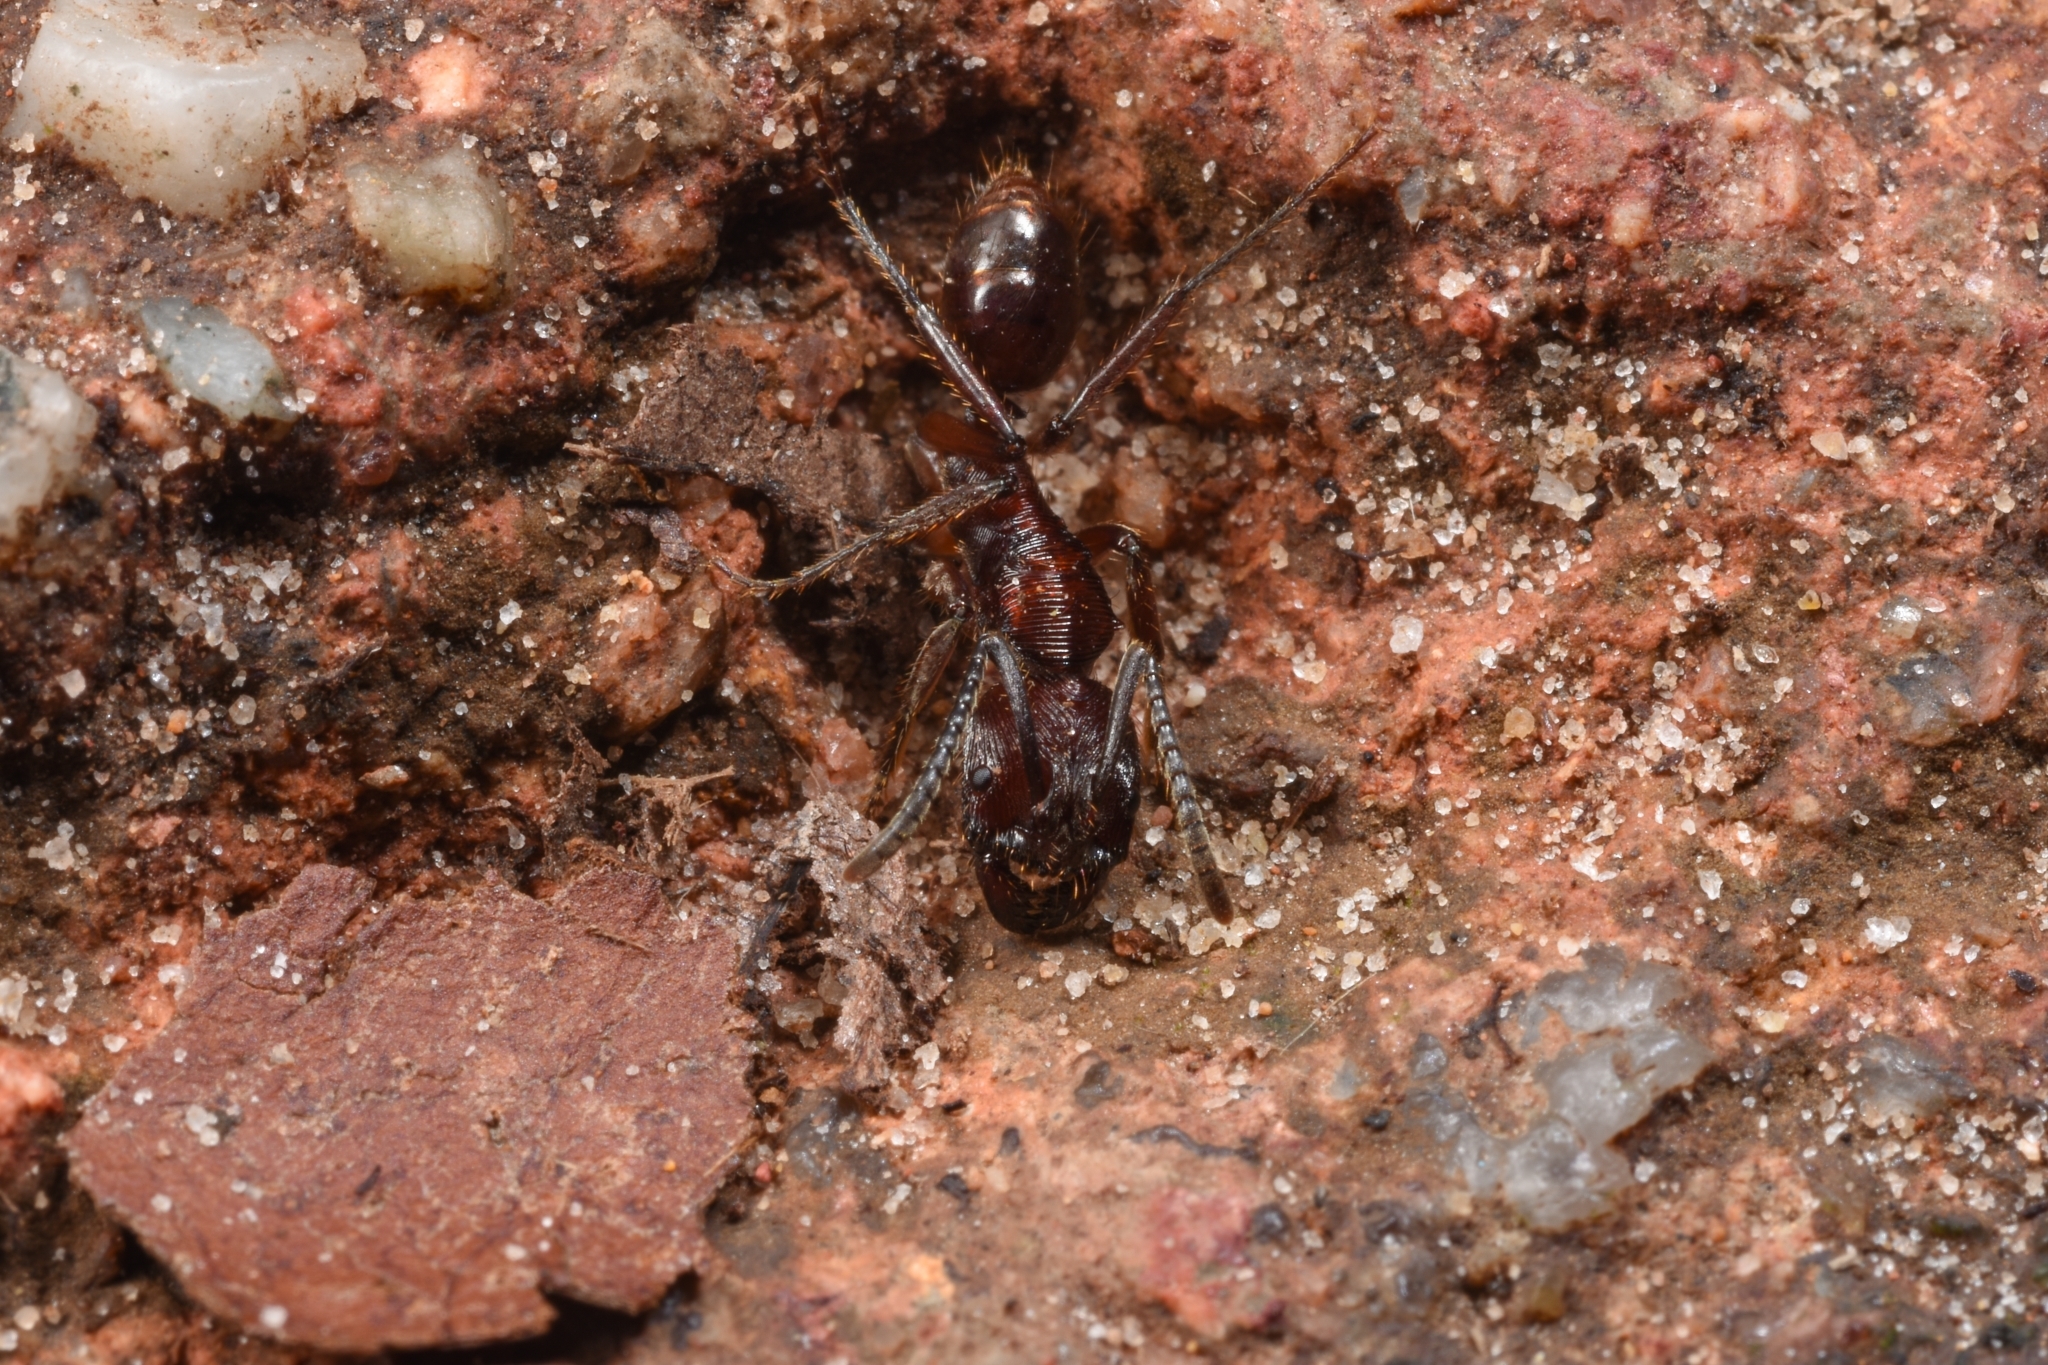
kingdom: Animalia
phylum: Arthropoda
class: Insecta
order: Hymenoptera
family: Formicidae
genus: Odontoponera
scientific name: Odontoponera transversa
